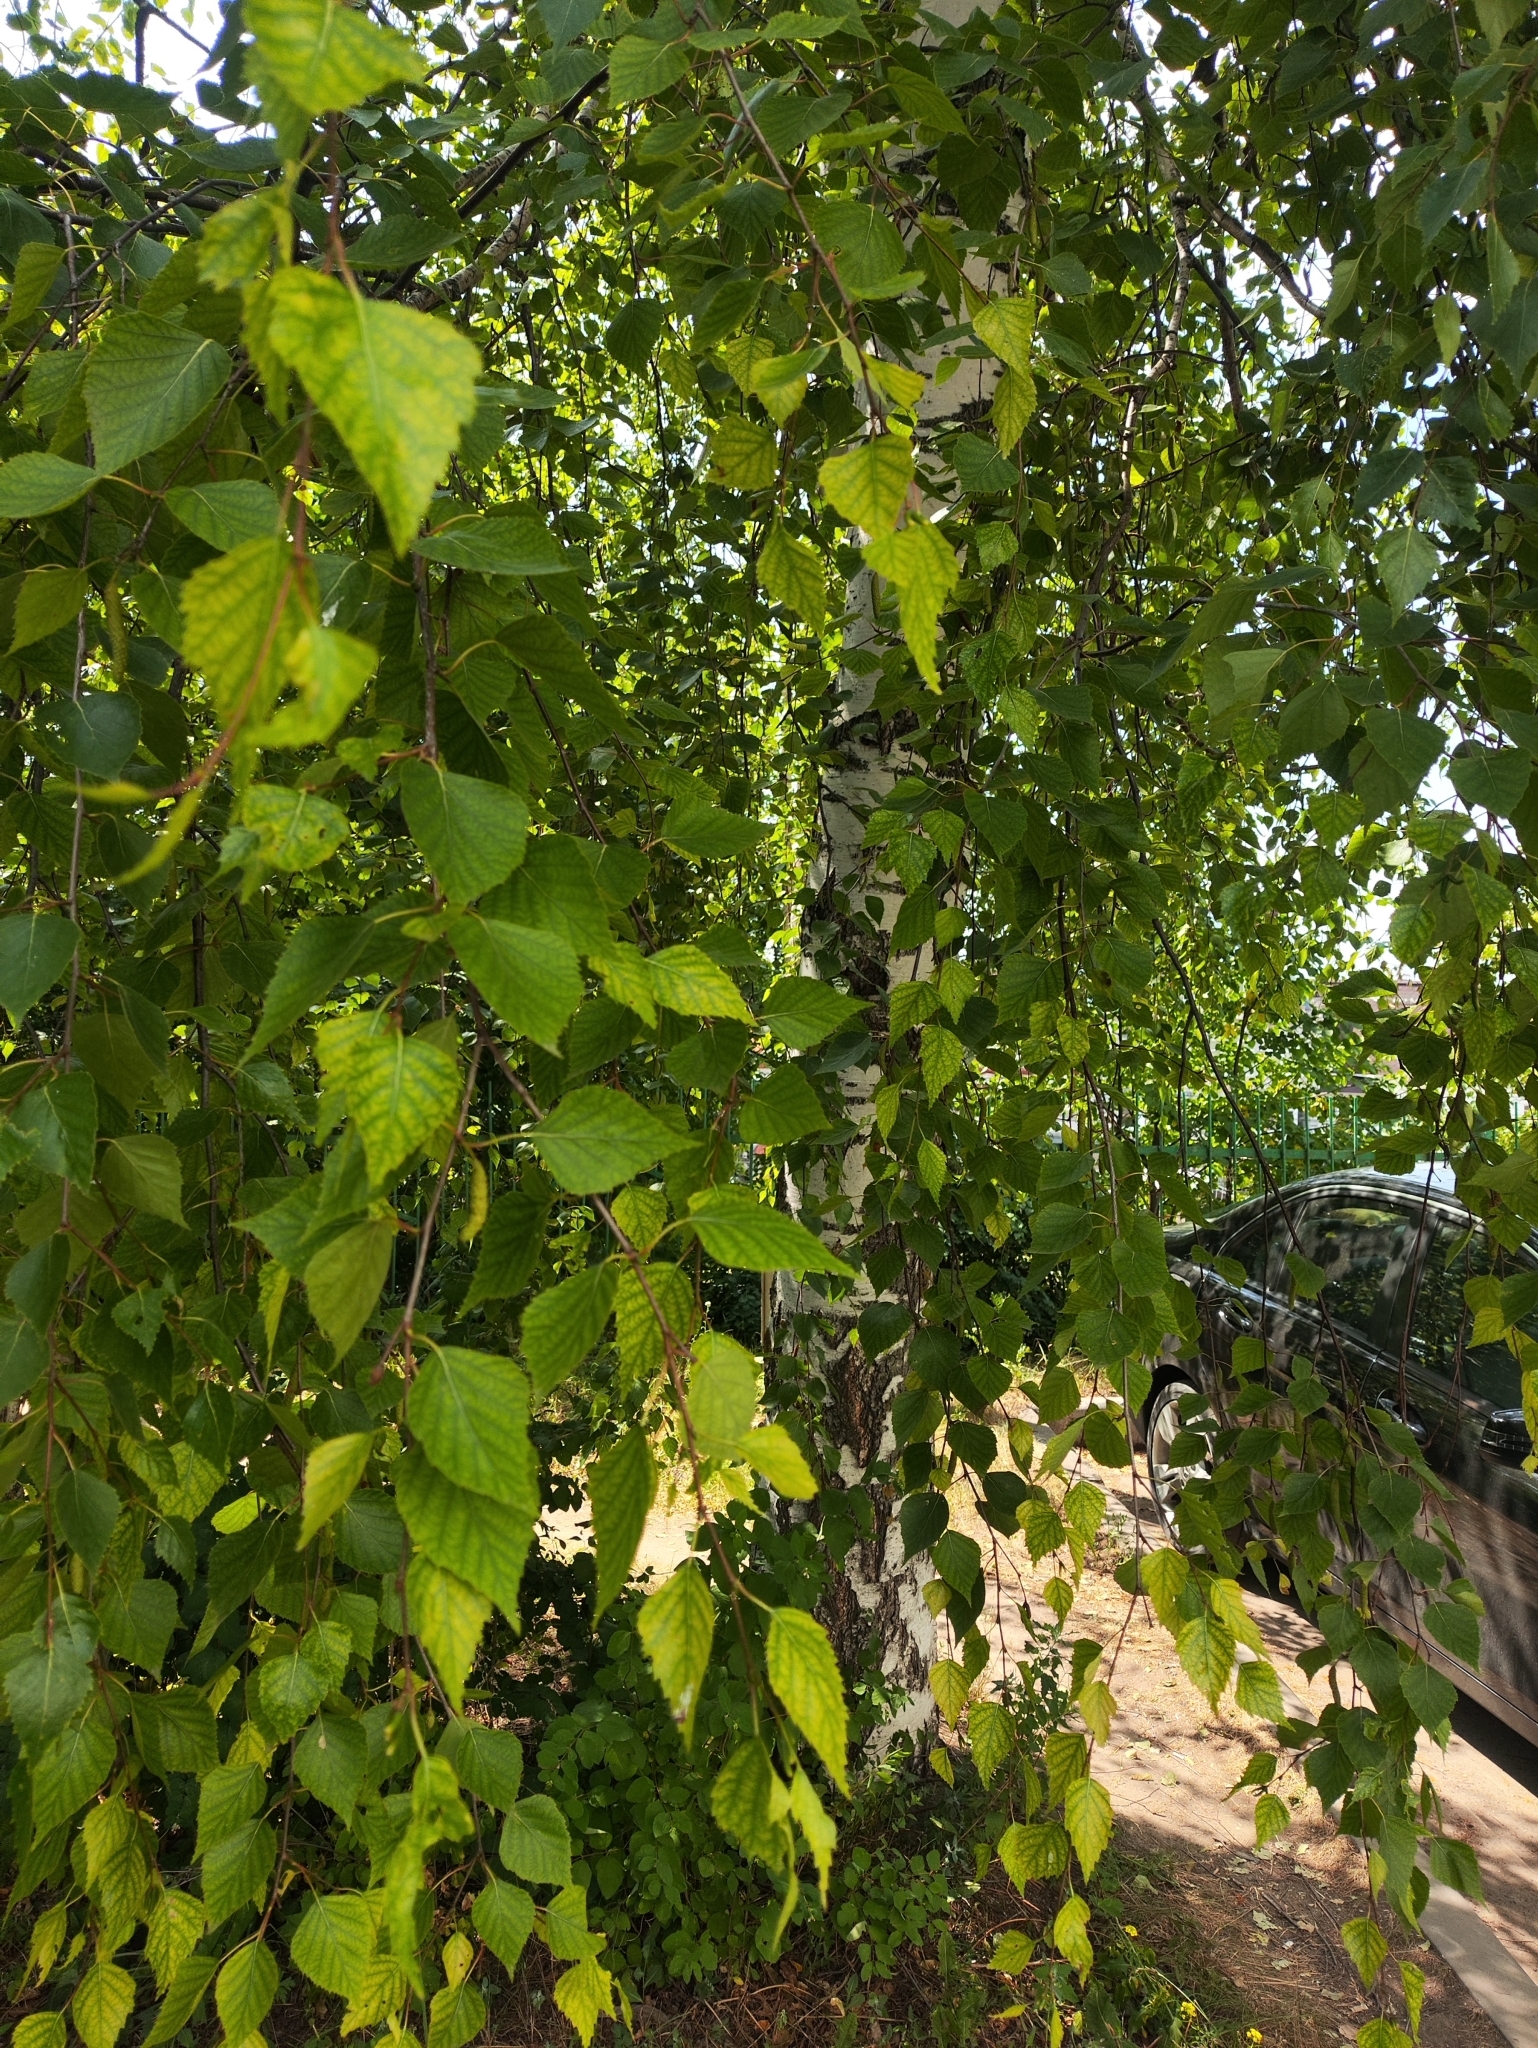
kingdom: Plantae
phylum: Tracheophyta
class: Magnoliopsida
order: Fagales
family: Betulaceae
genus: Betula
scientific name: Betula pendula
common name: Silver birch
